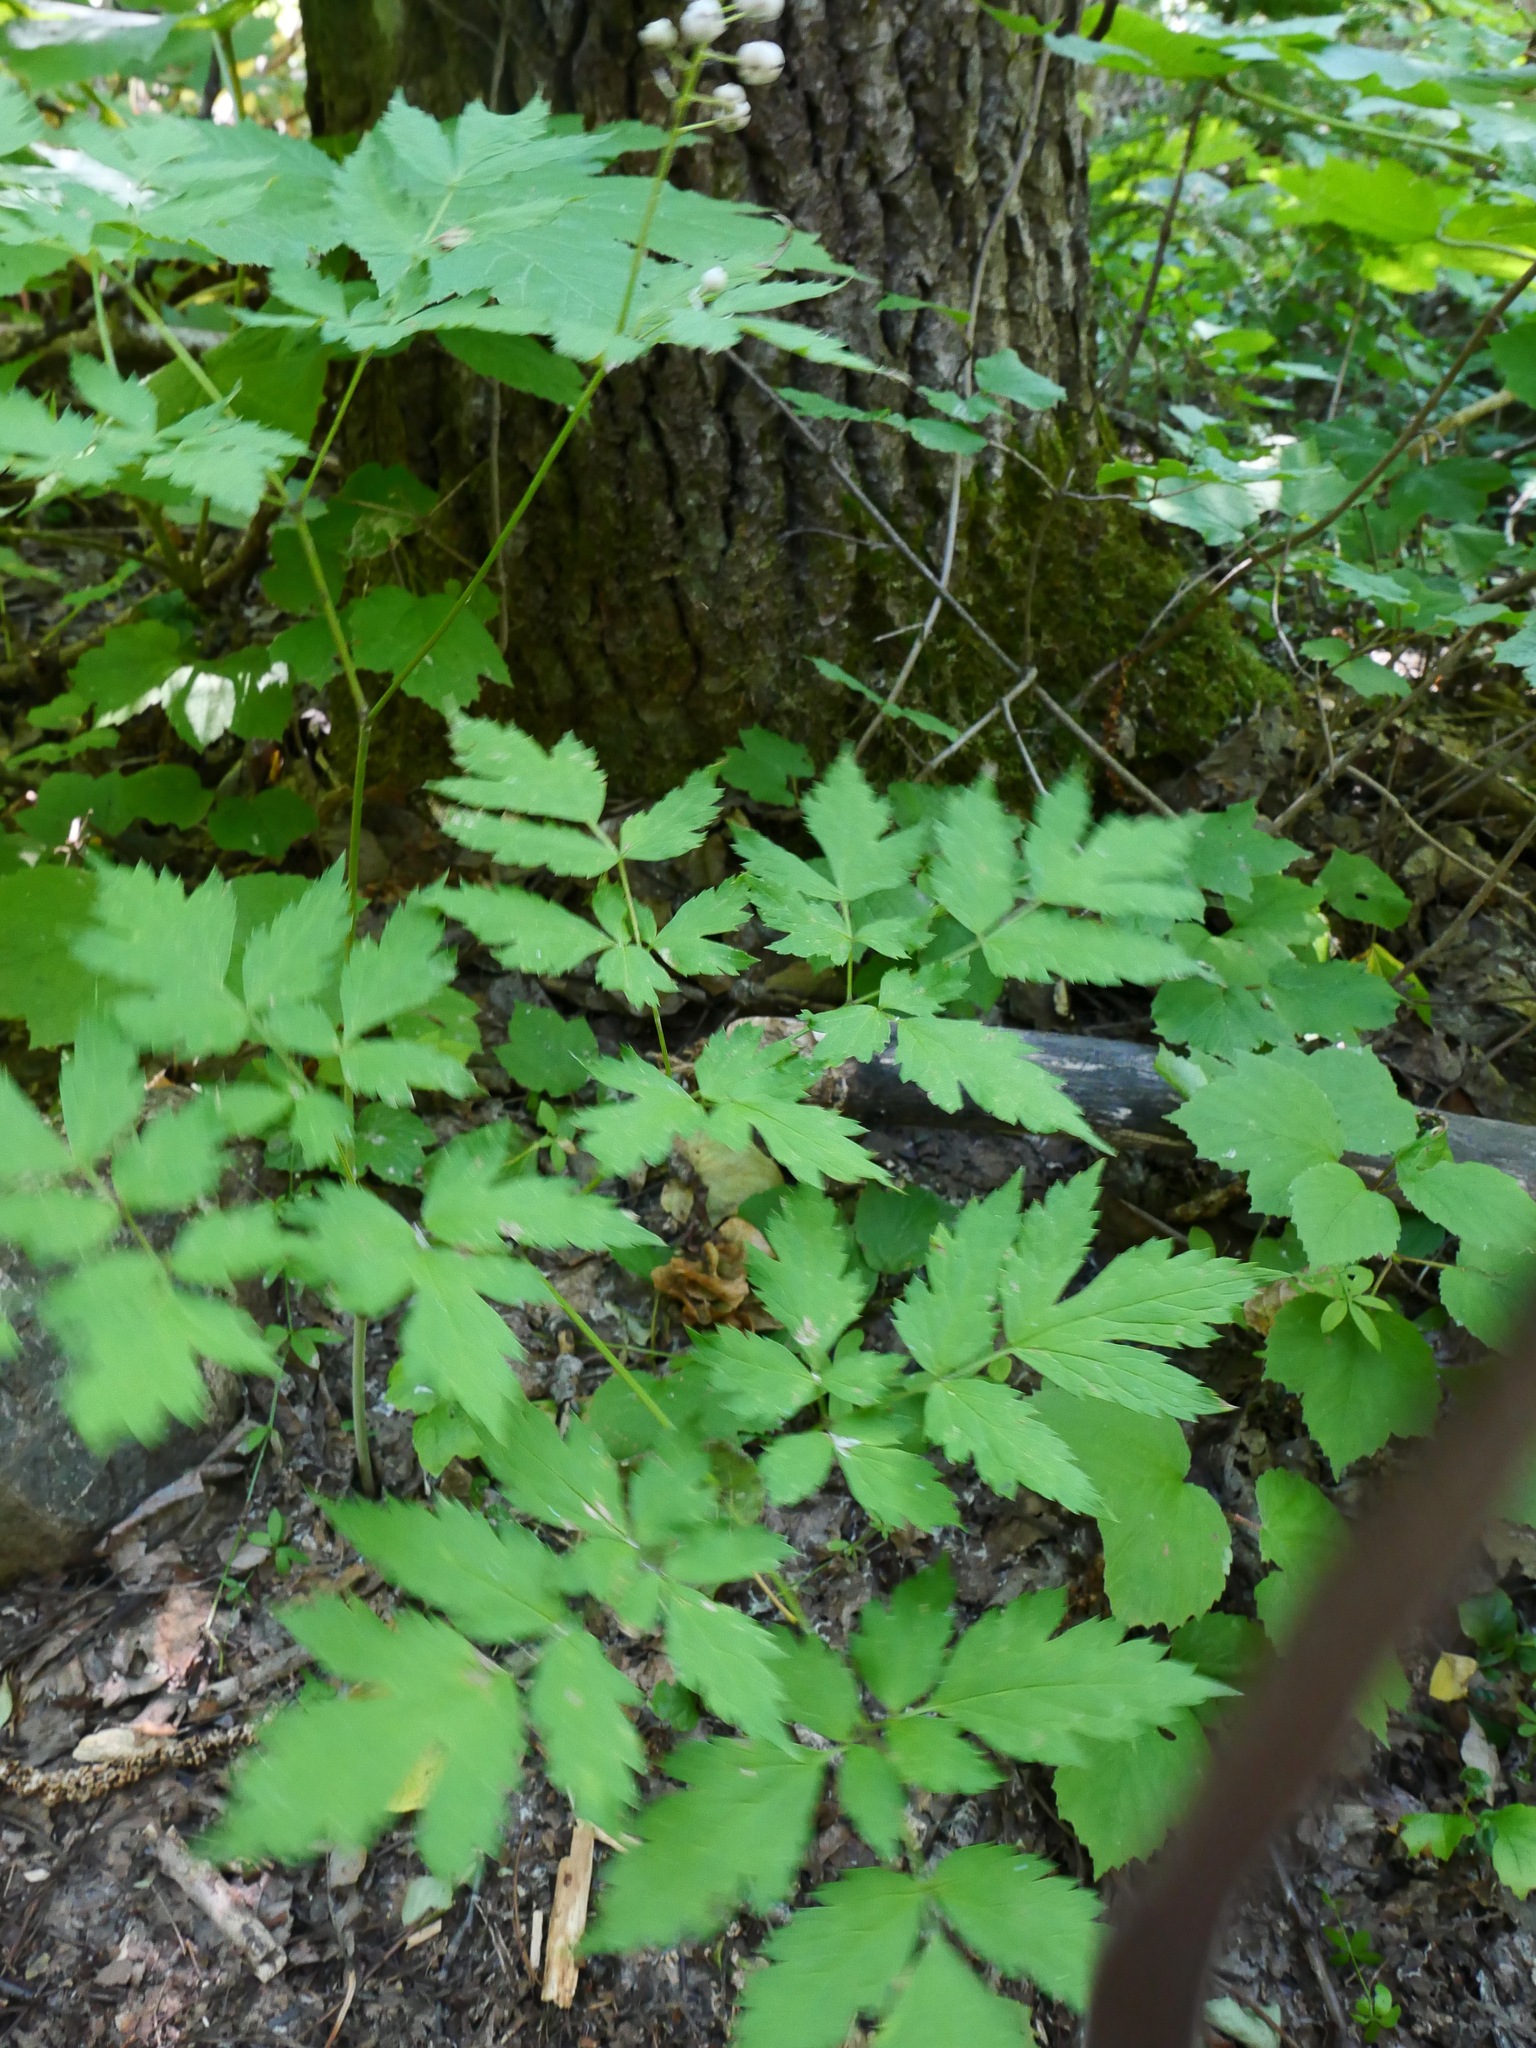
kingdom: Plantae
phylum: Tracheophyta
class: Magnoliopsida
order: Ranunculales
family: Ranunculaceae
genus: Actaea
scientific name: Actaea rubra
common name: Red baneberry
